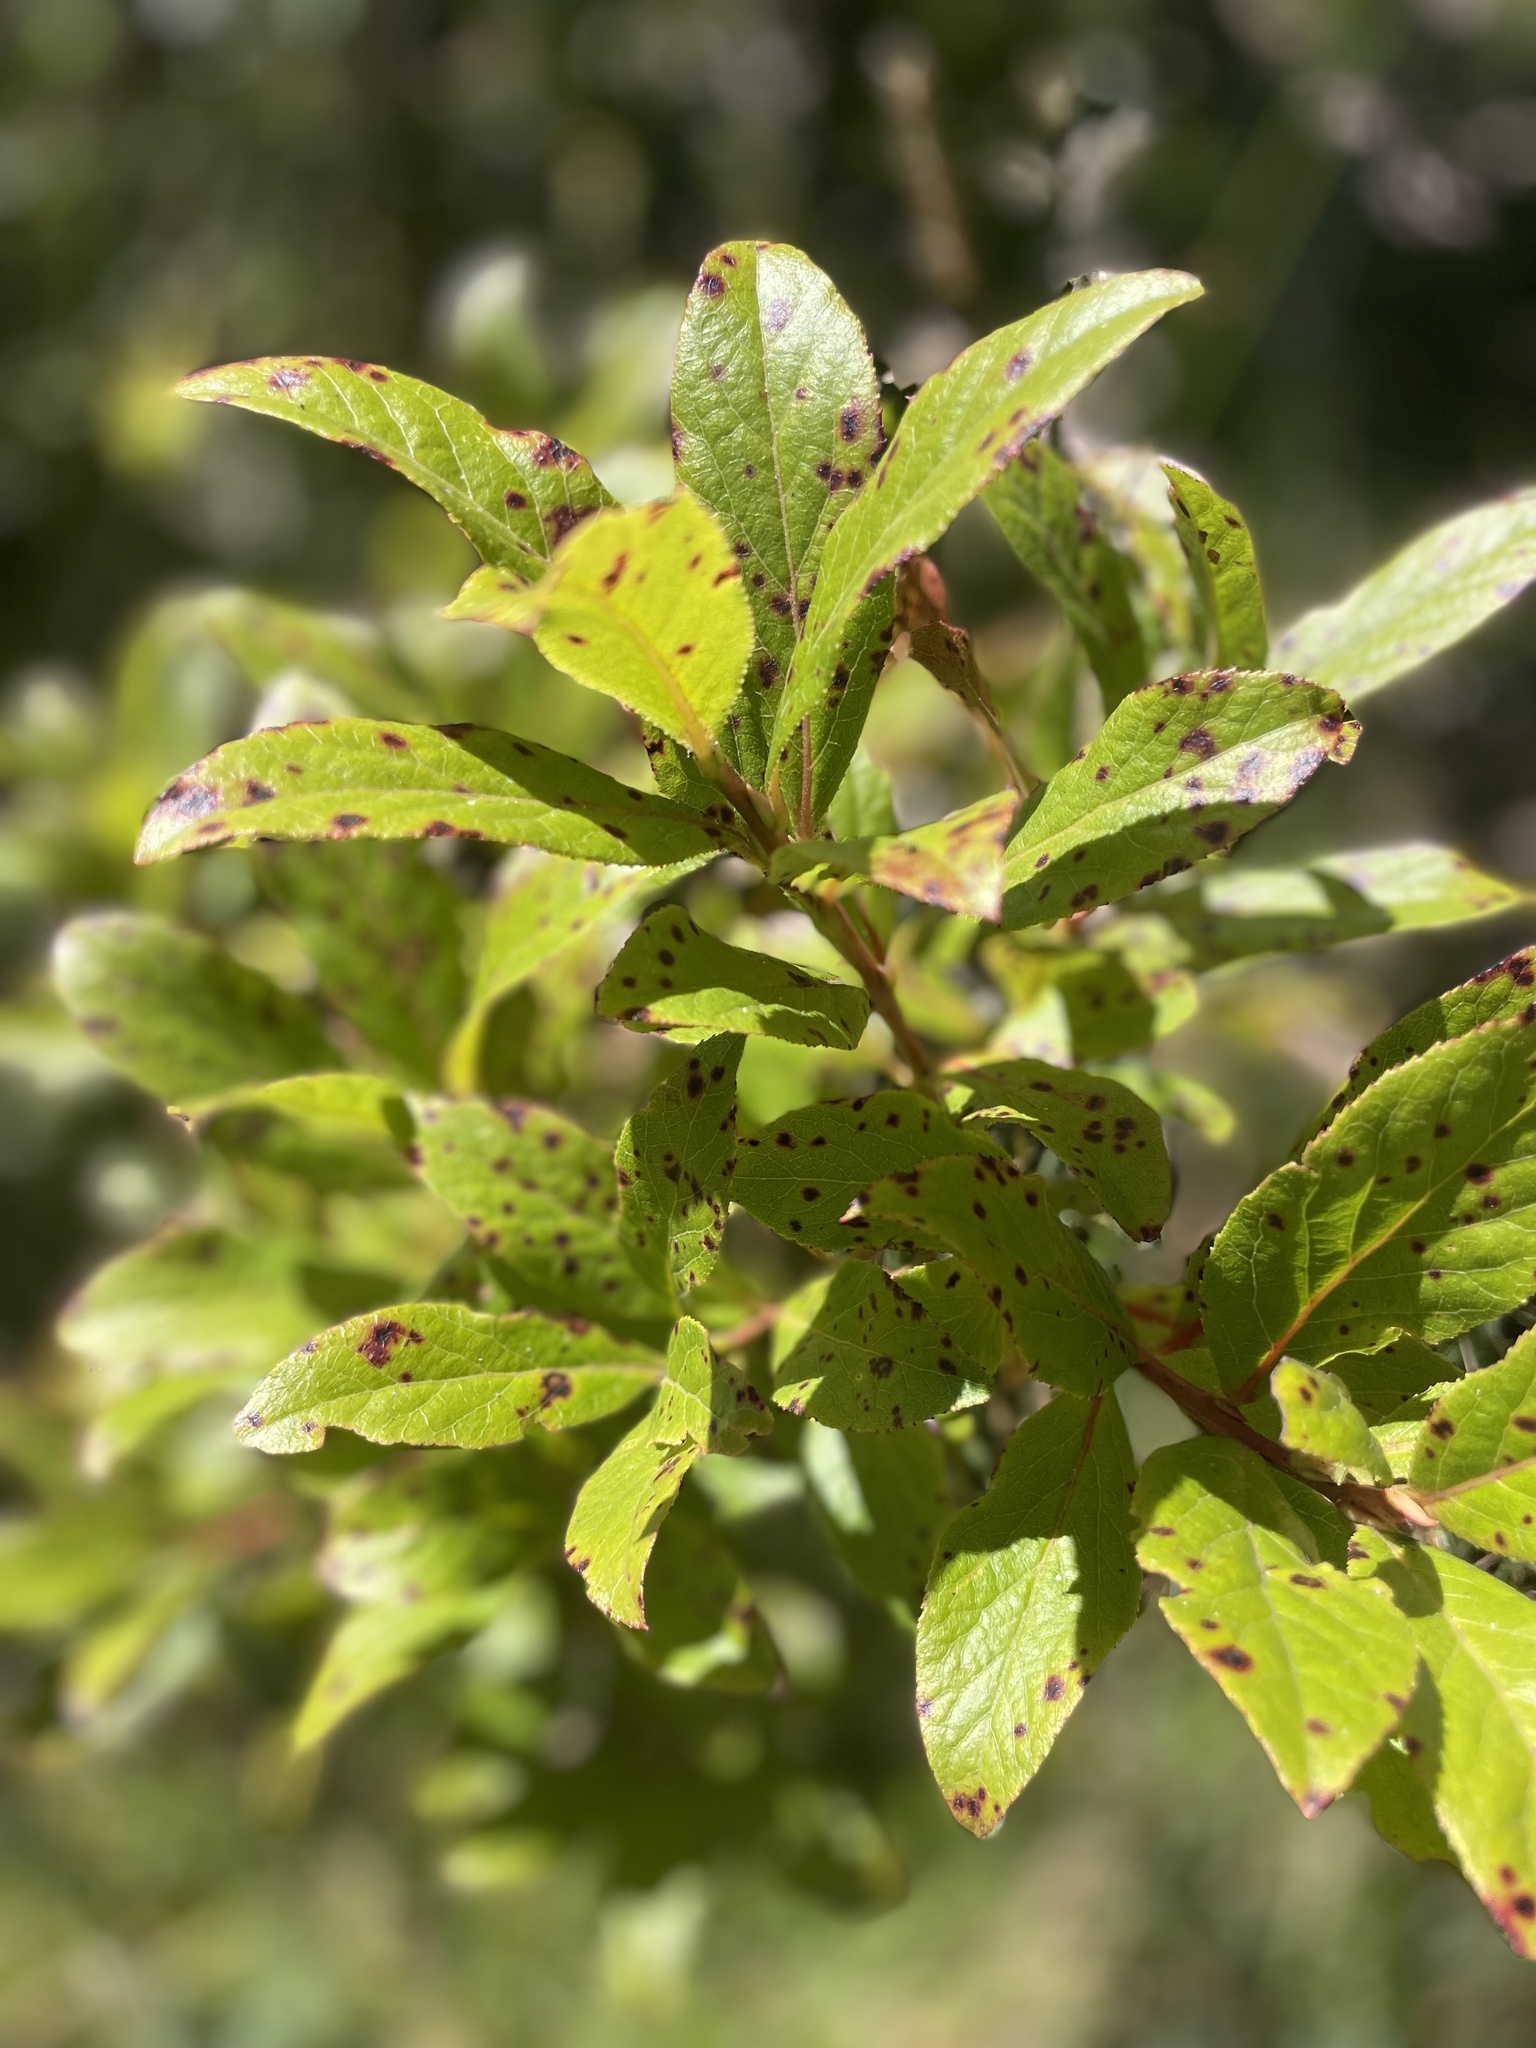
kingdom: Plantae
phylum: Tracheophyta
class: Magnoliopsida
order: Ericales
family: Ericaceae
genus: Vaccinium
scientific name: Vaccinium calycinum
